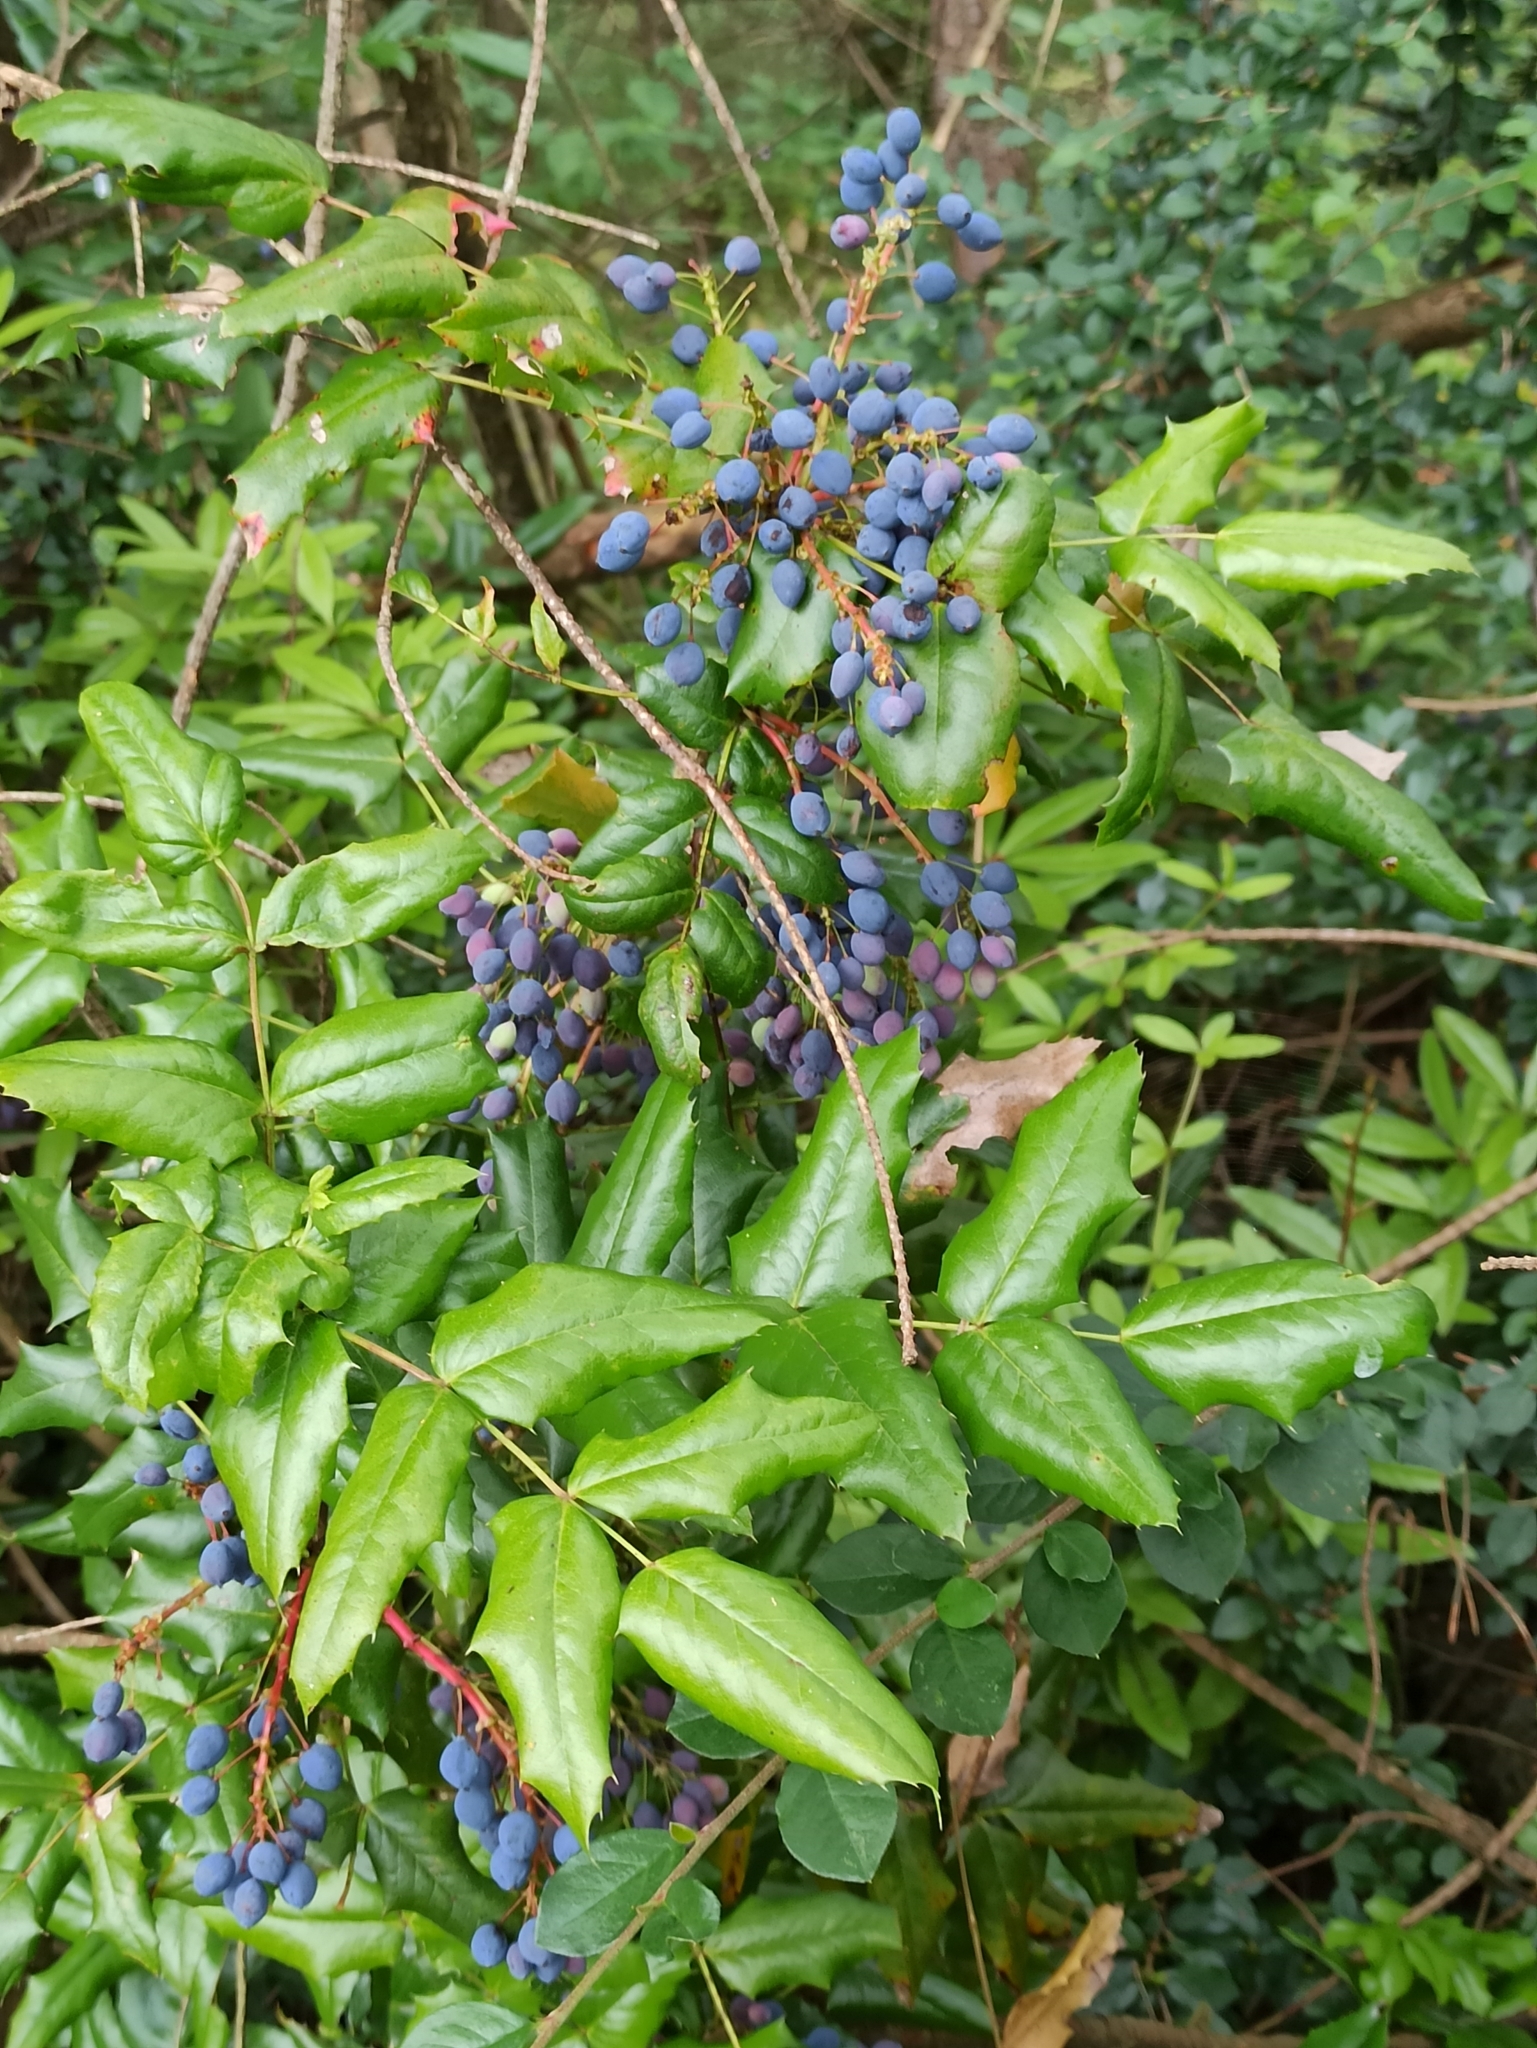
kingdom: Plantae
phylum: Tracheophyta
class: Magnoliopsida
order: Ranunculales
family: Berberidaceae
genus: Mahonia
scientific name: Mahonia aquifolium
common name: Oregon-grape
